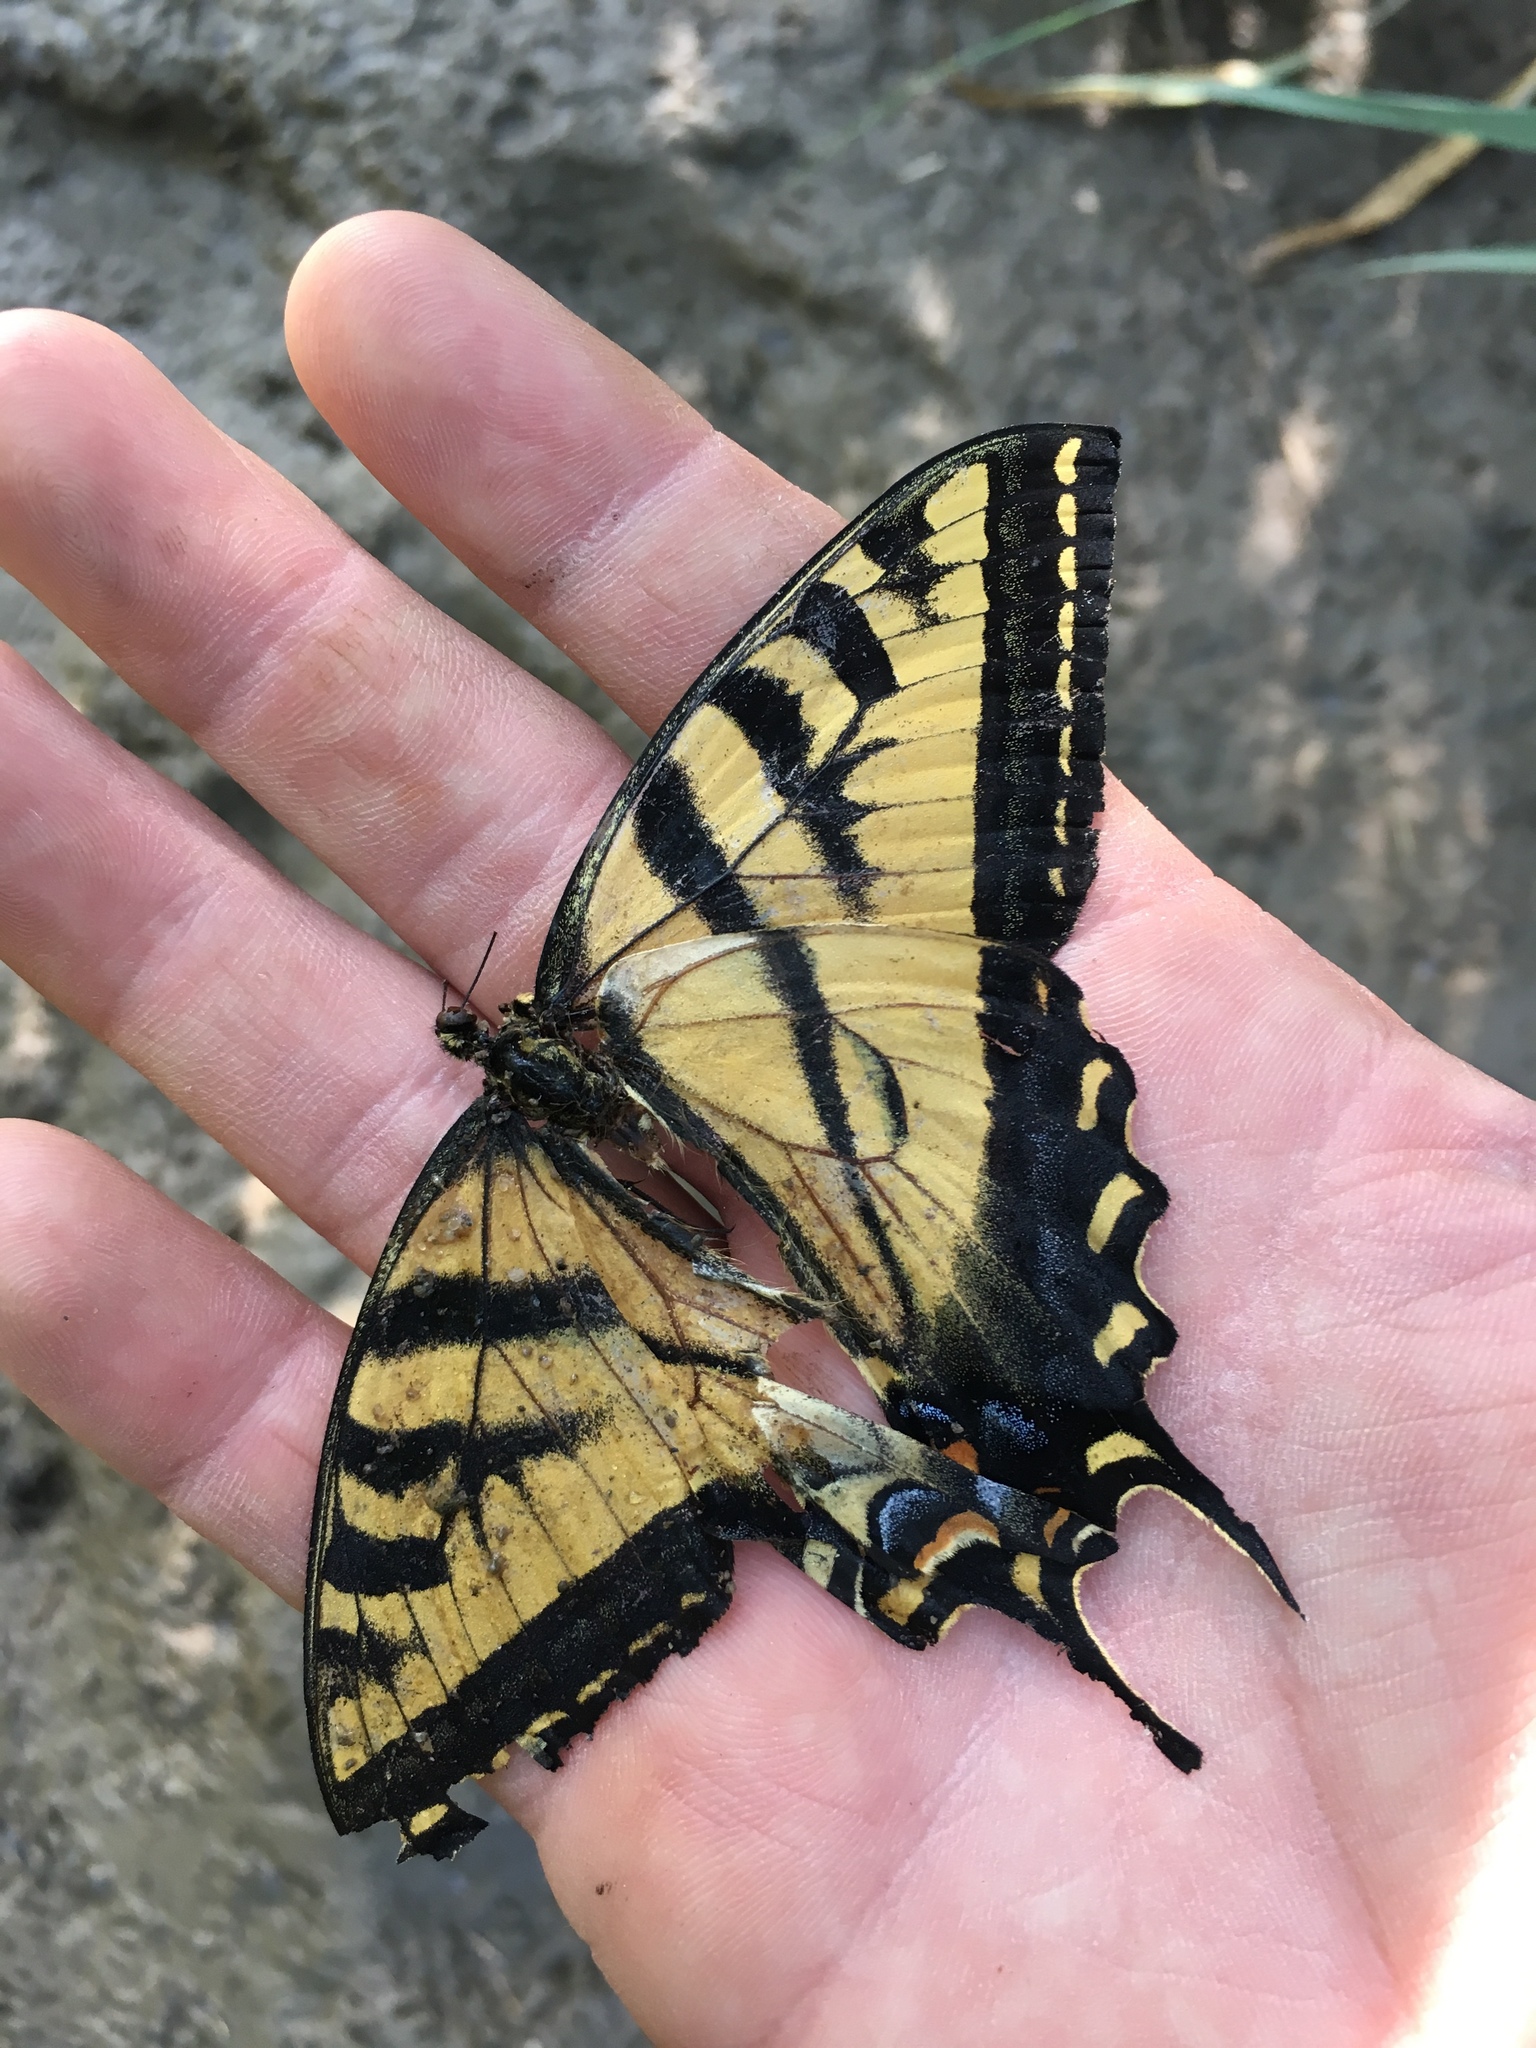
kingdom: Animalia
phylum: Arthropoda
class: Insecta
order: Lepidoptera
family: Papilionidae
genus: Papilio
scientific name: Papilio rutulus
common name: Western tiger swallowtail
